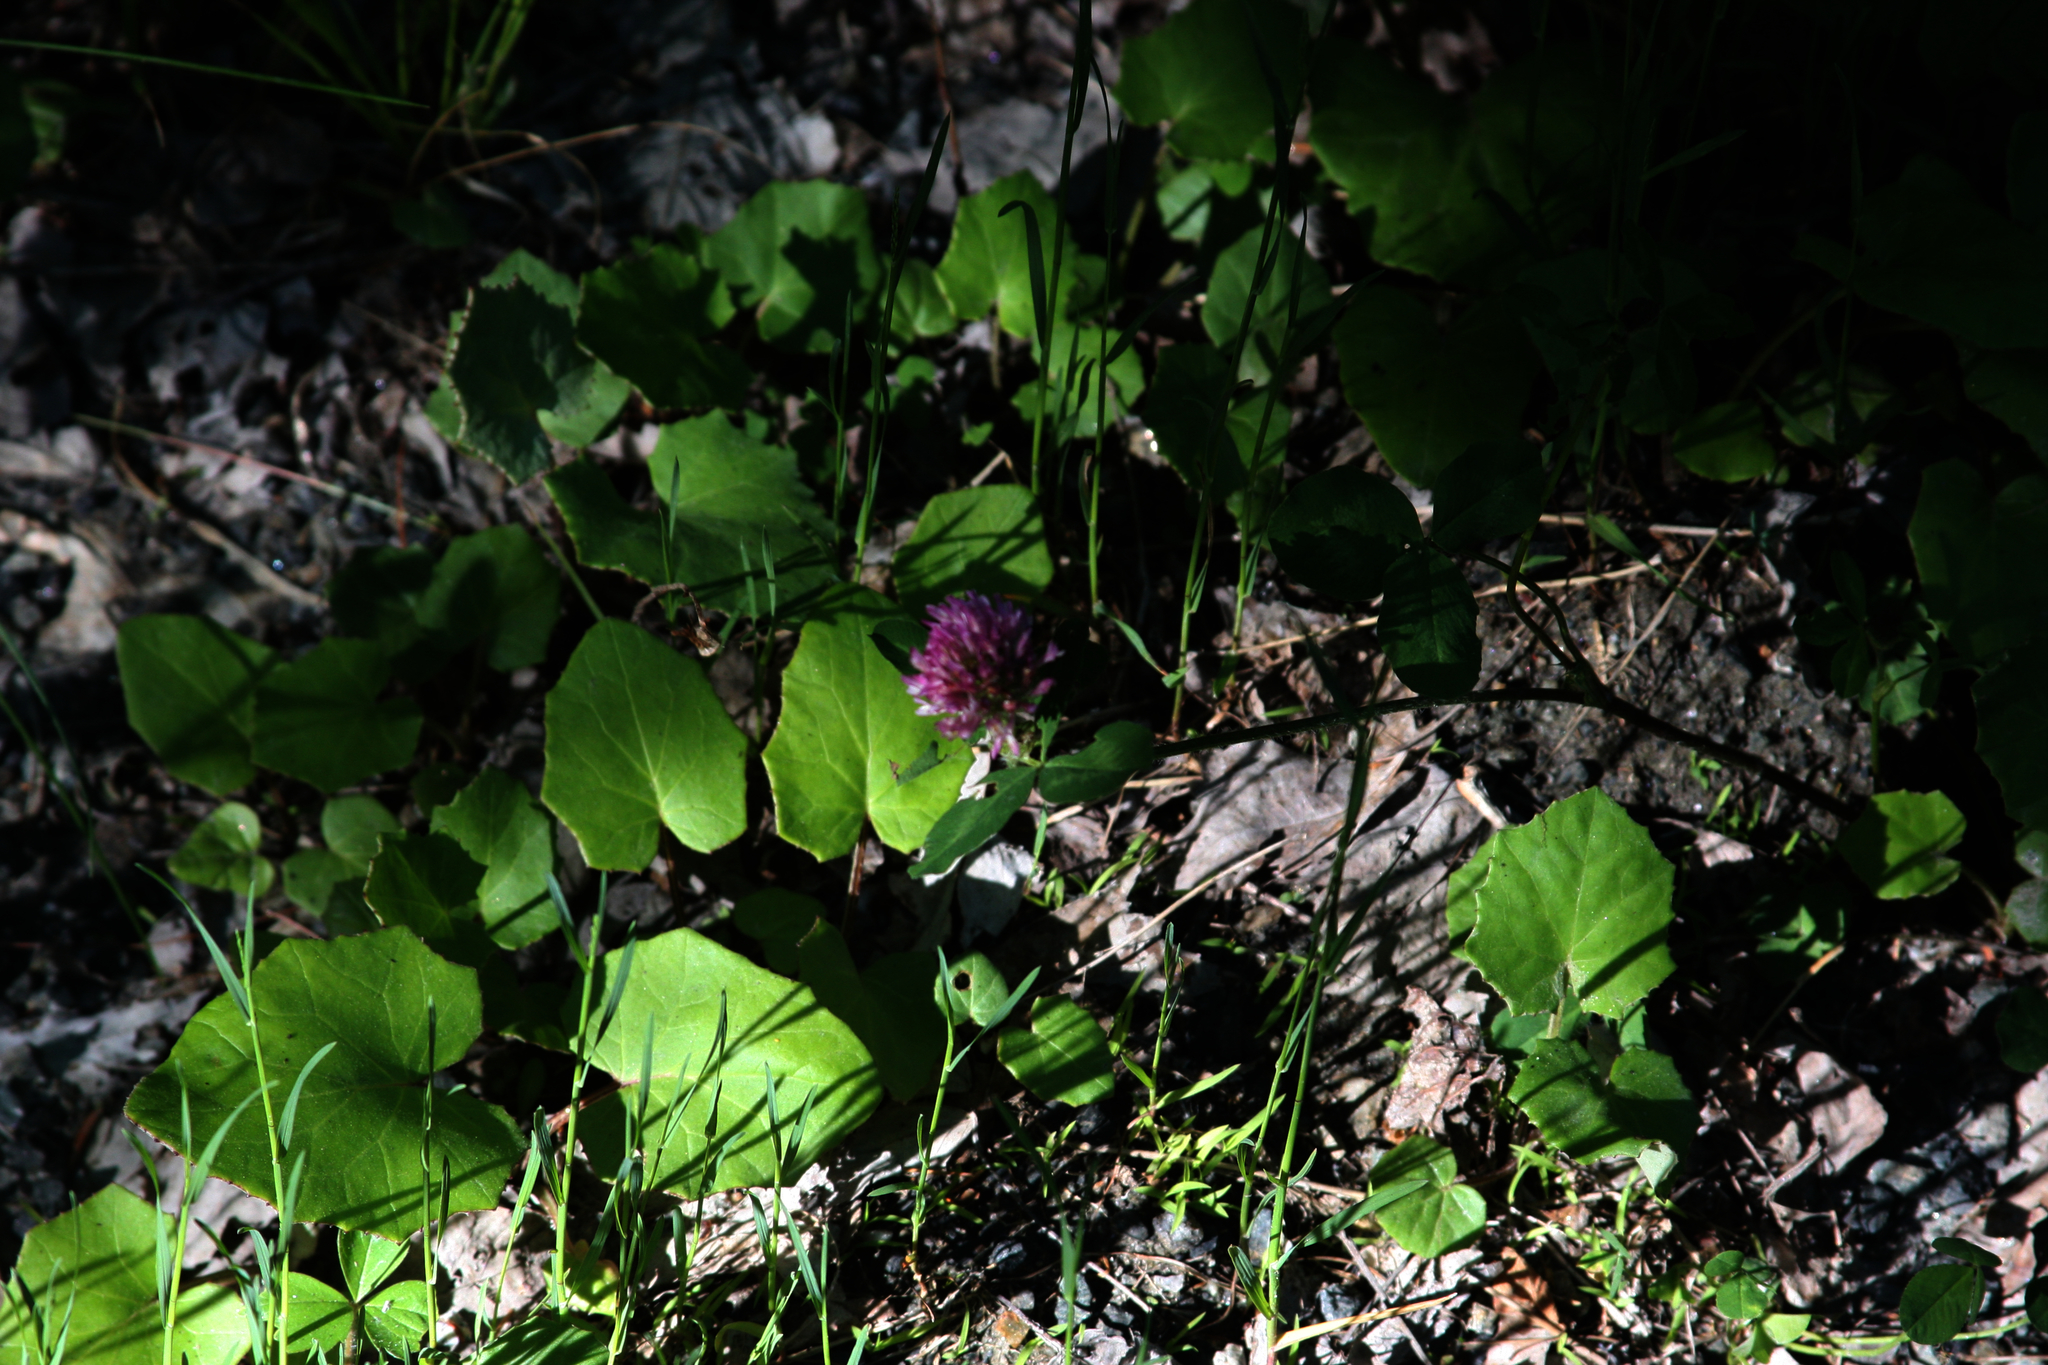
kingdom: Plantae
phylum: Tracheophyta
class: Magnoliopsida
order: Fabales
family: Fabaceae
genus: Trifolium
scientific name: Trifolium pratense
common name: Red clover
